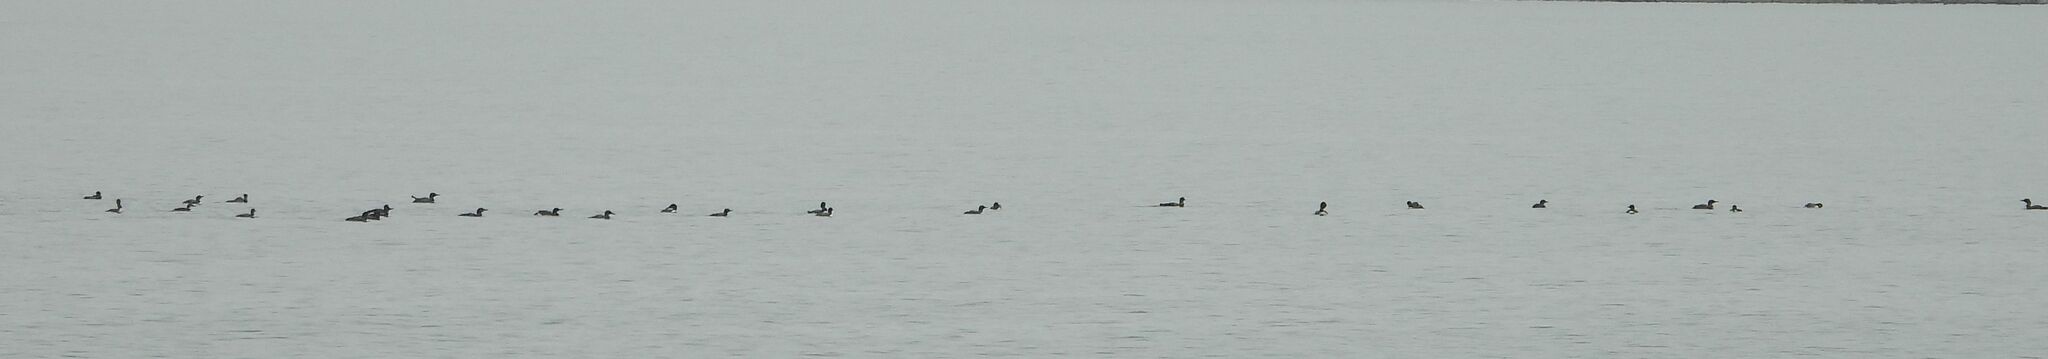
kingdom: Animalia
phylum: Chordata
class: Aves
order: Gaviiformes
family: Gaviidae
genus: Gavia
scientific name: Gavia immer
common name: Common loon
